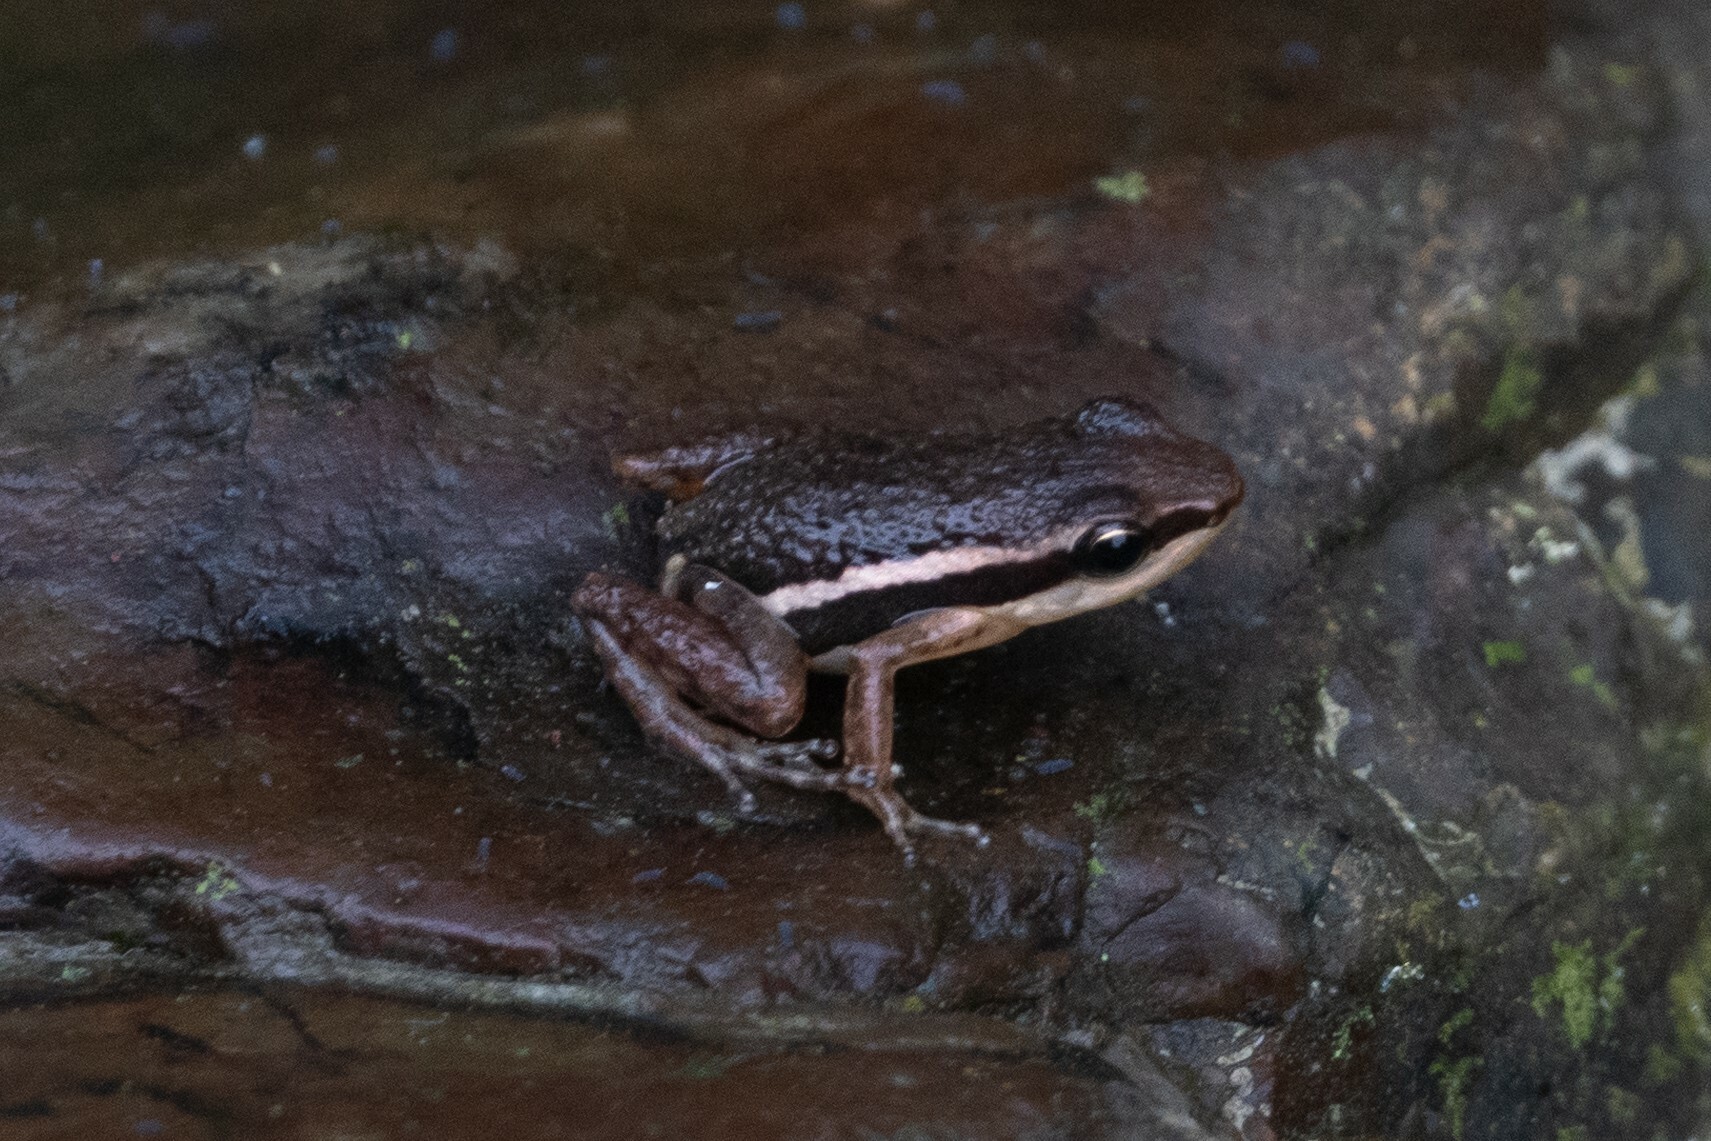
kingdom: Animalia
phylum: Chordata
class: Amphibia
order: Anura
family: Dendrobatidae
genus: Epipedobates
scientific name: Epipedobates machalilla
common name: Machalilla rocket frog
